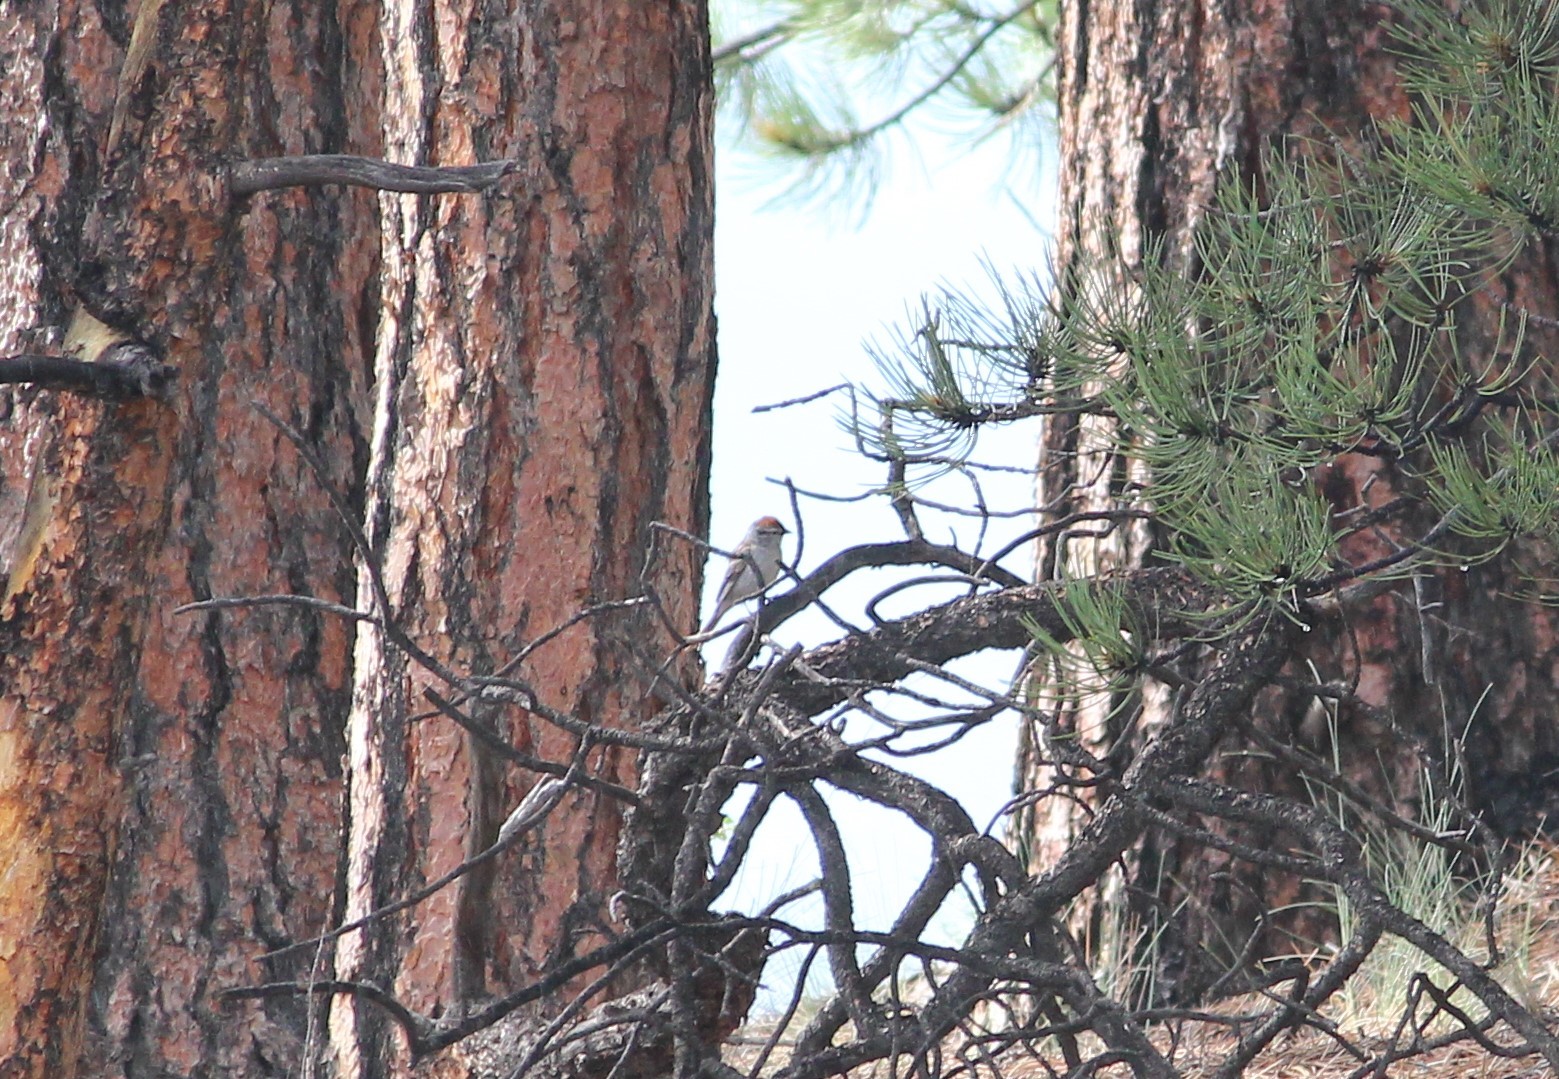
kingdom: Animalia
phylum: Chordata
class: Aves
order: Passeriformes
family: Passerellidae
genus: Spizella
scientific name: Spizella passerina
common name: Chipping sparrow
